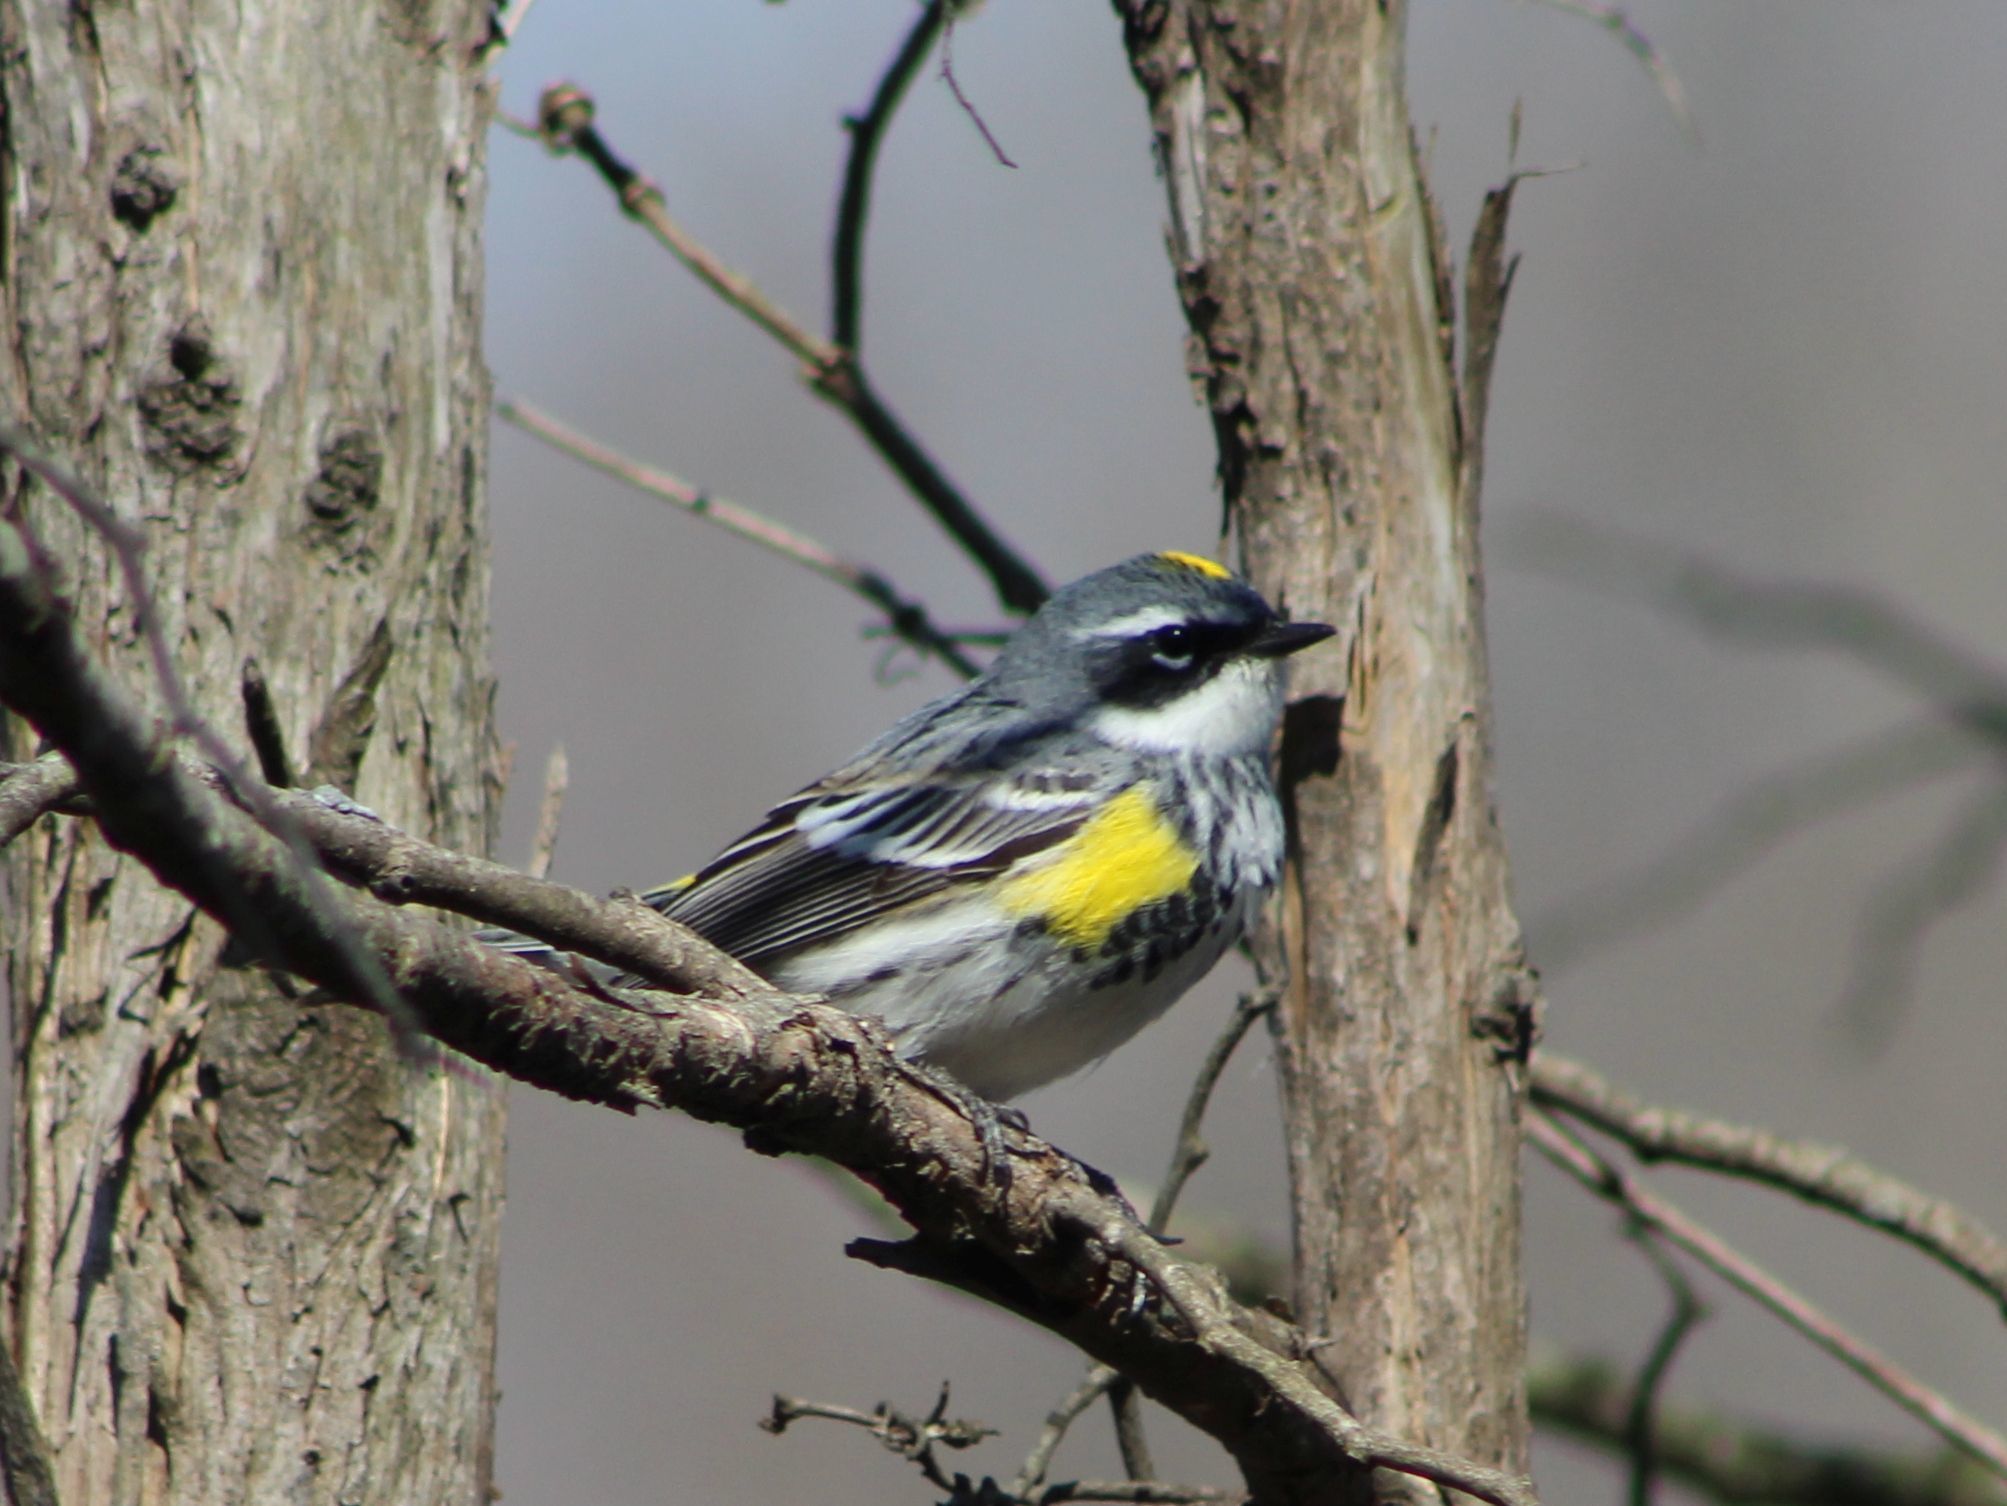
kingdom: Animalia
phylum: Chordata
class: Aves
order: Passeriformes
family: Parulidae
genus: Setophaga
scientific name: Setophaga coronata
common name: Myrtle warbler
